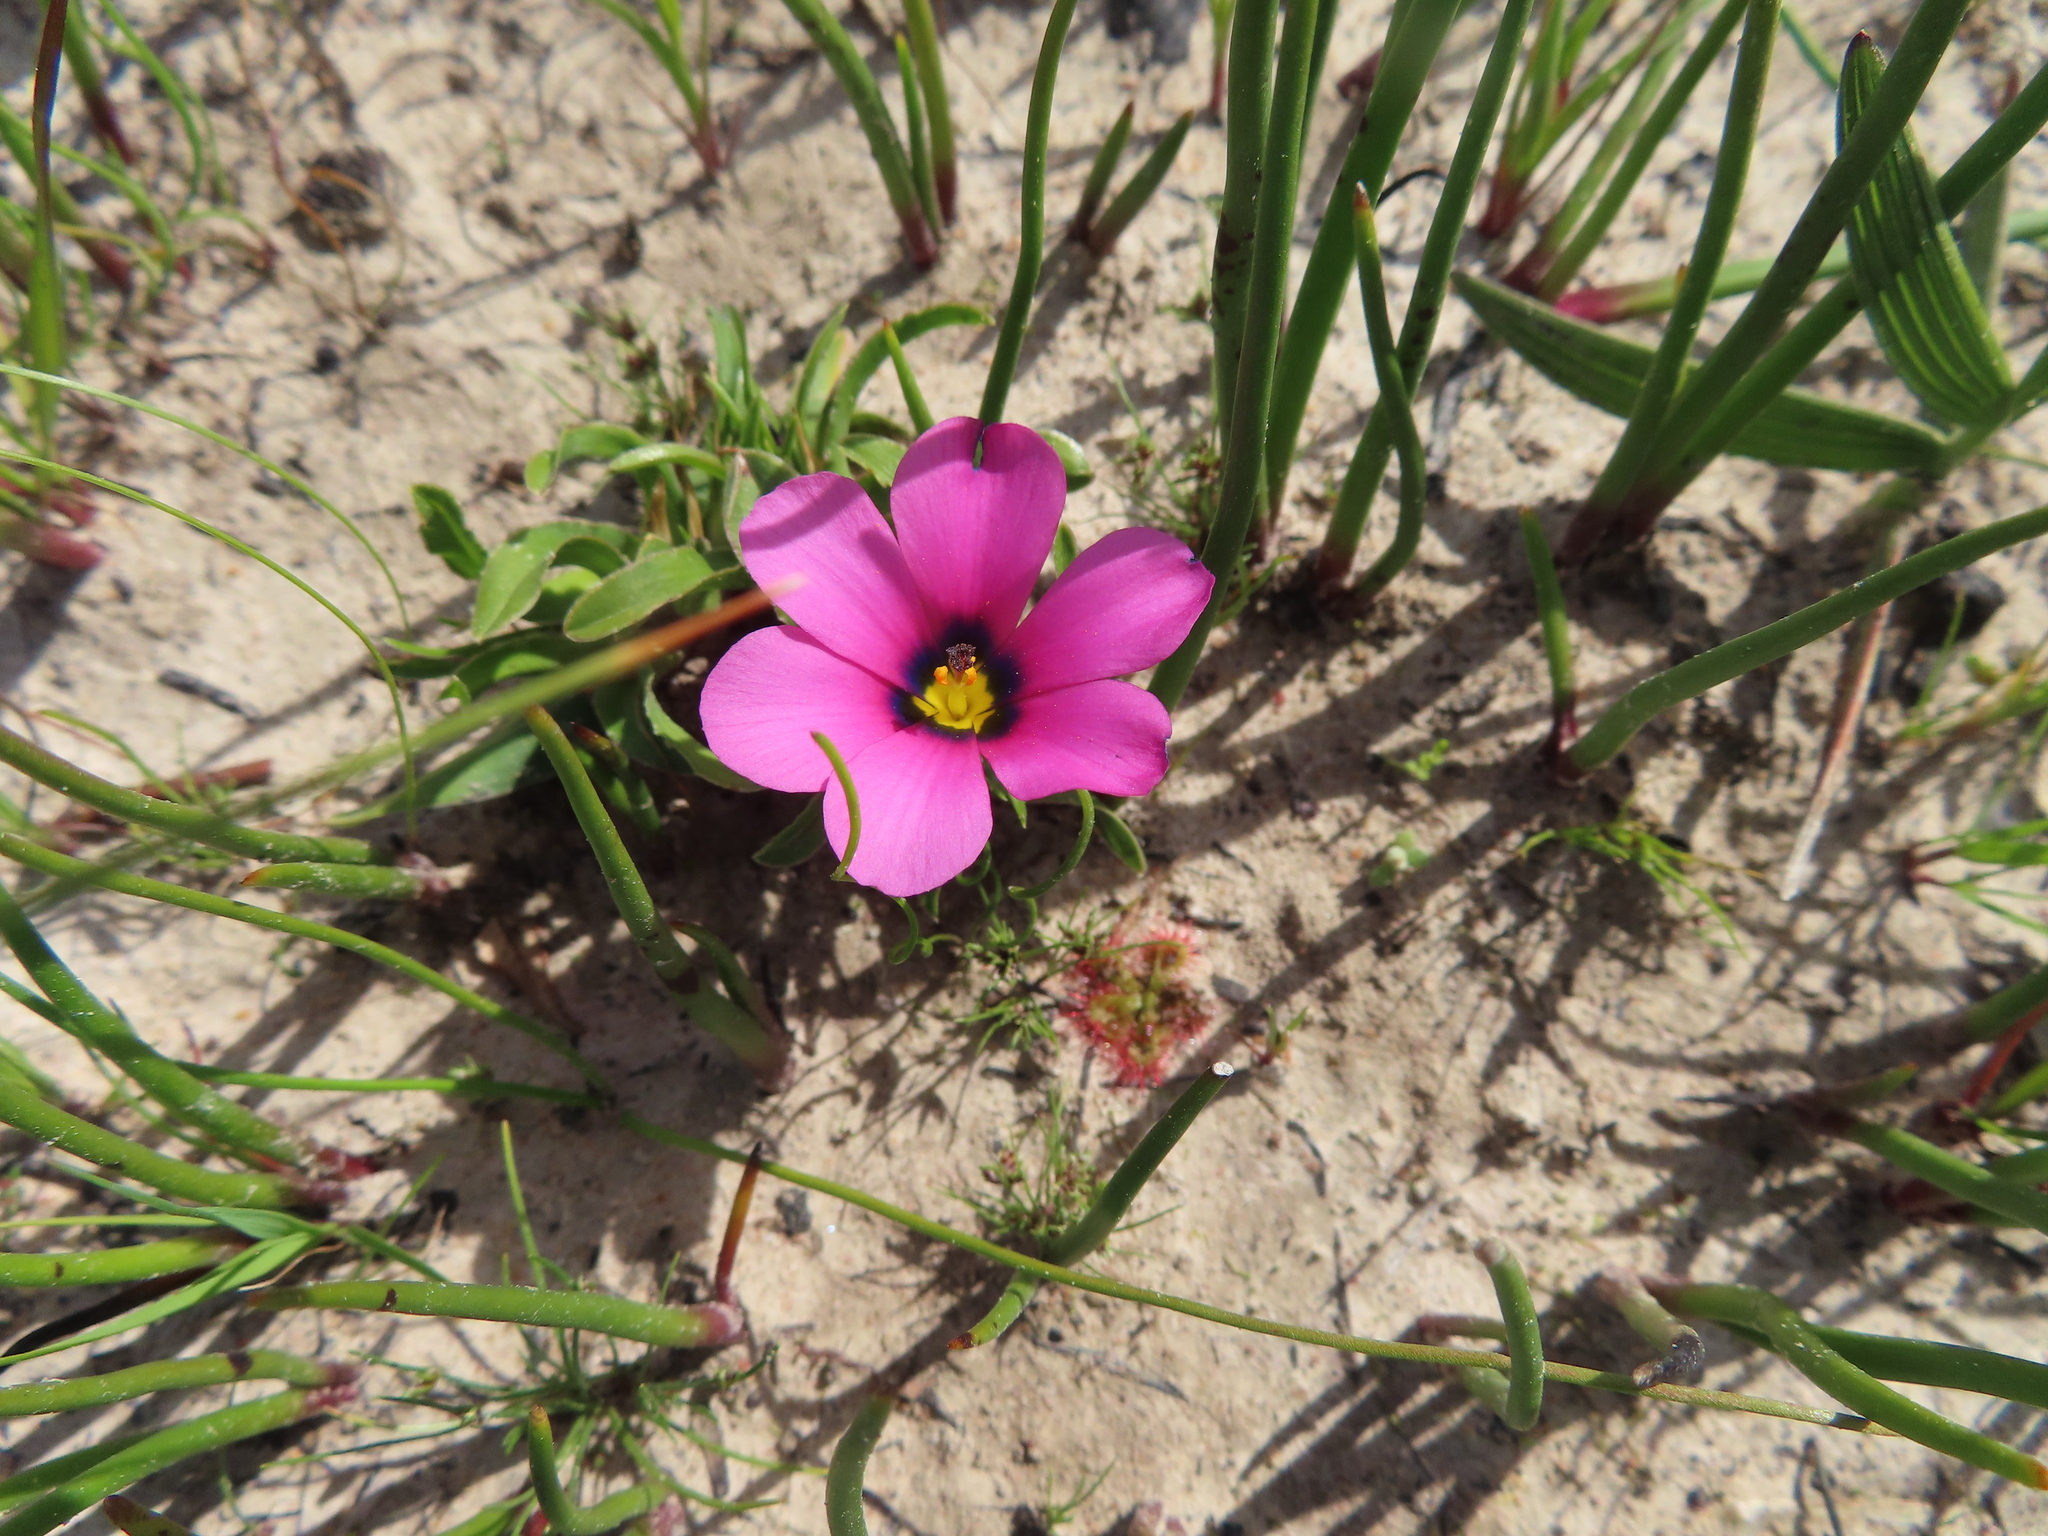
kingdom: Plantae
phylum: Tracheophyta
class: Liliopsida
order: Asparagales
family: Iridaceae
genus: Moraea
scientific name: Moraea versicolor
